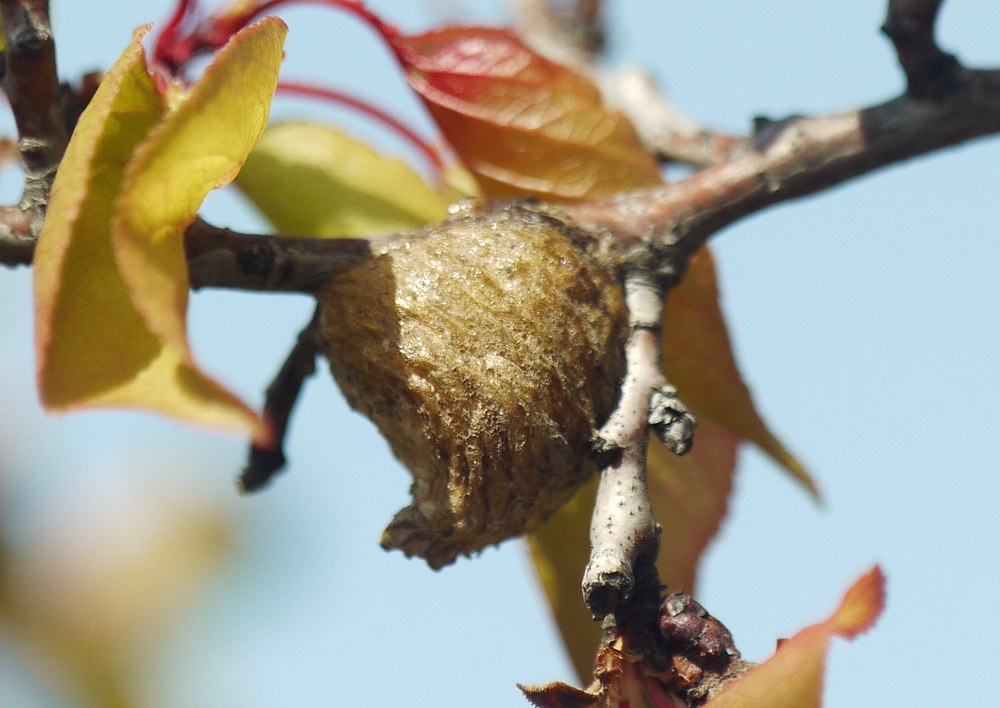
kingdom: Animalia
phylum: Arthropoda
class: Insecta
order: Mantodea
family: Mantidae
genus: Hierodula
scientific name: Hierodula transcaucasica
